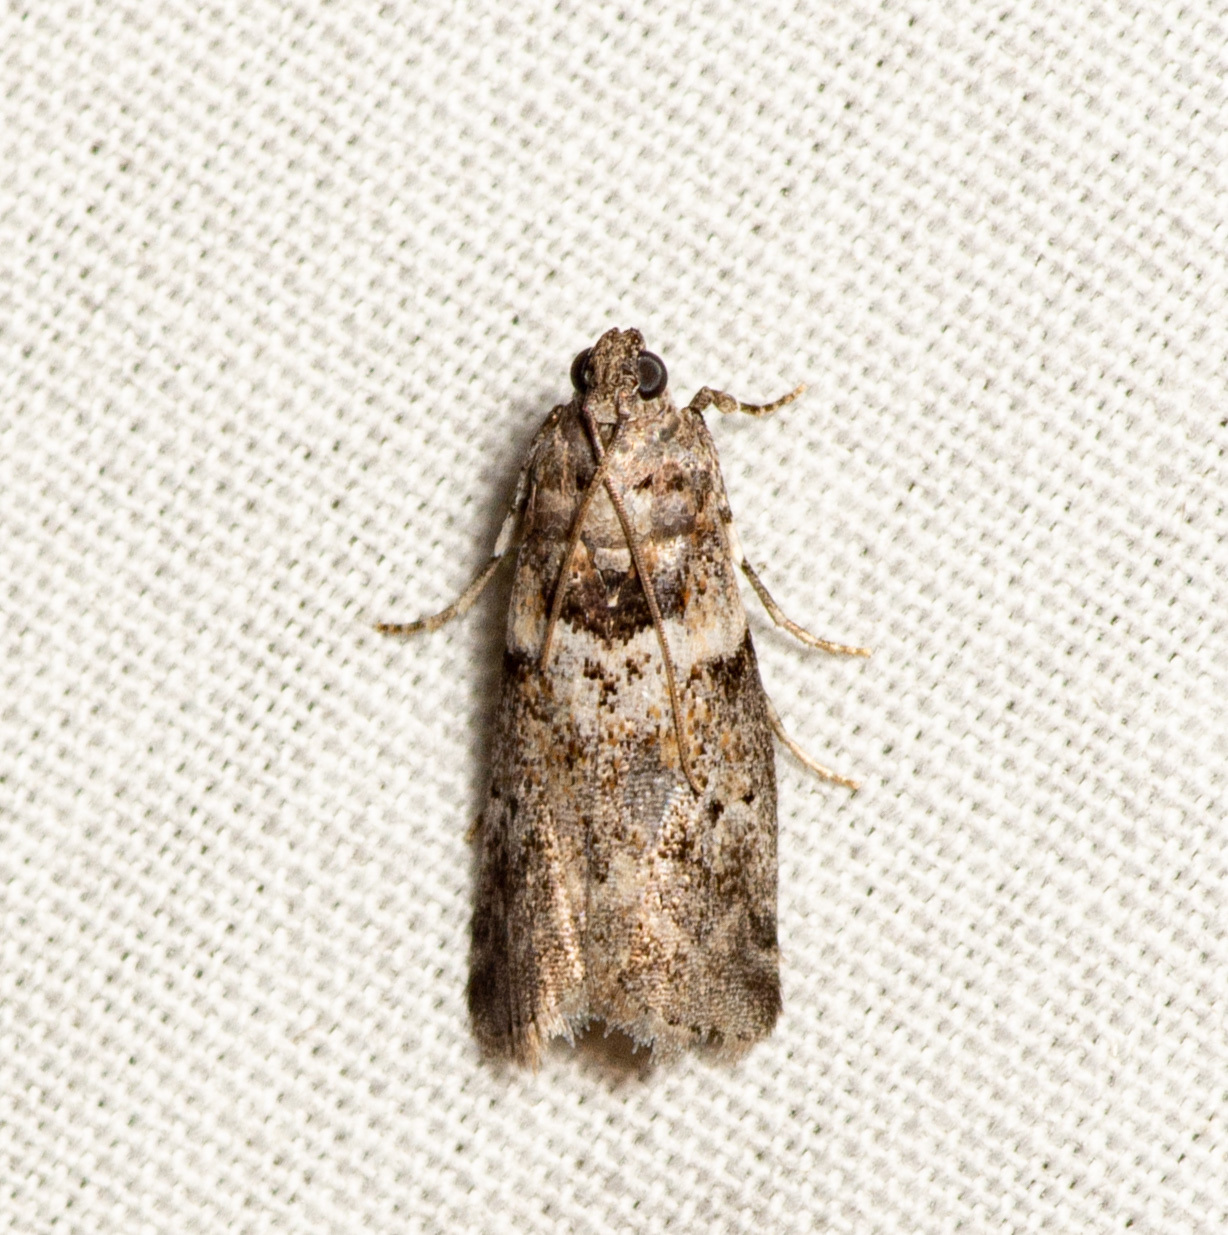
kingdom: Animalia
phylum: Arthropoda
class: Insecta
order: Lepidoptera
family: Pyralidae
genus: Salebriaria
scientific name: Salebriaria annulosella
